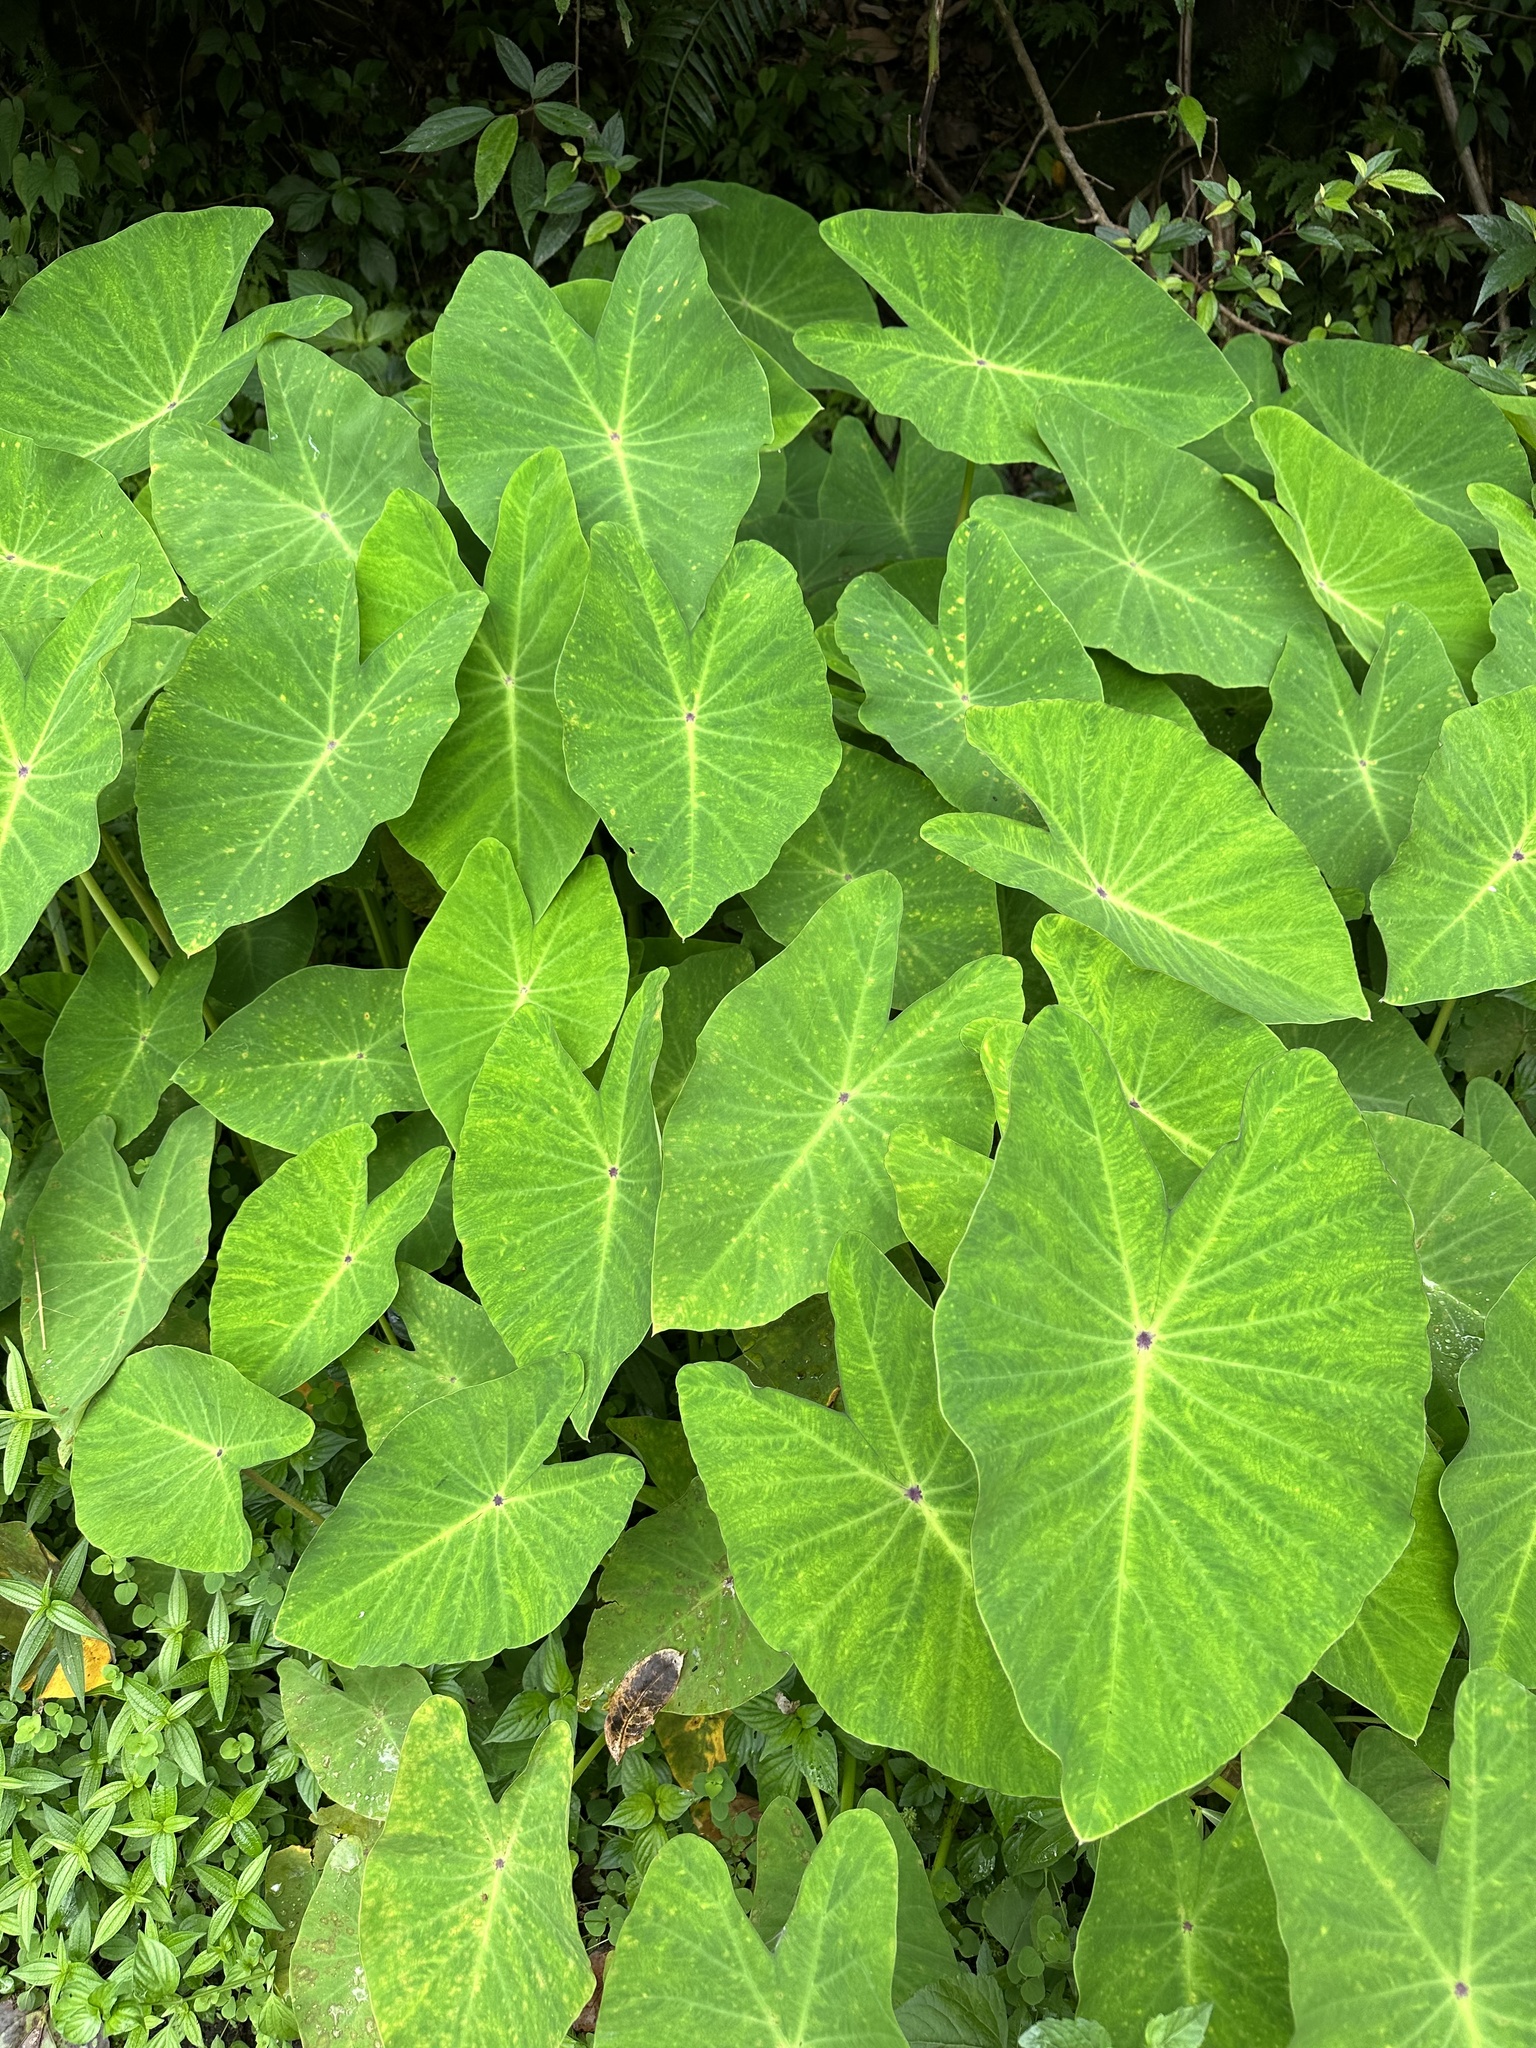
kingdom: Plantae
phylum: Tracheophyta
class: Liliopsida
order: Alismatales
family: Araceae
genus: Colocasia
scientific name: Colocasia esculenta
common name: Taro
